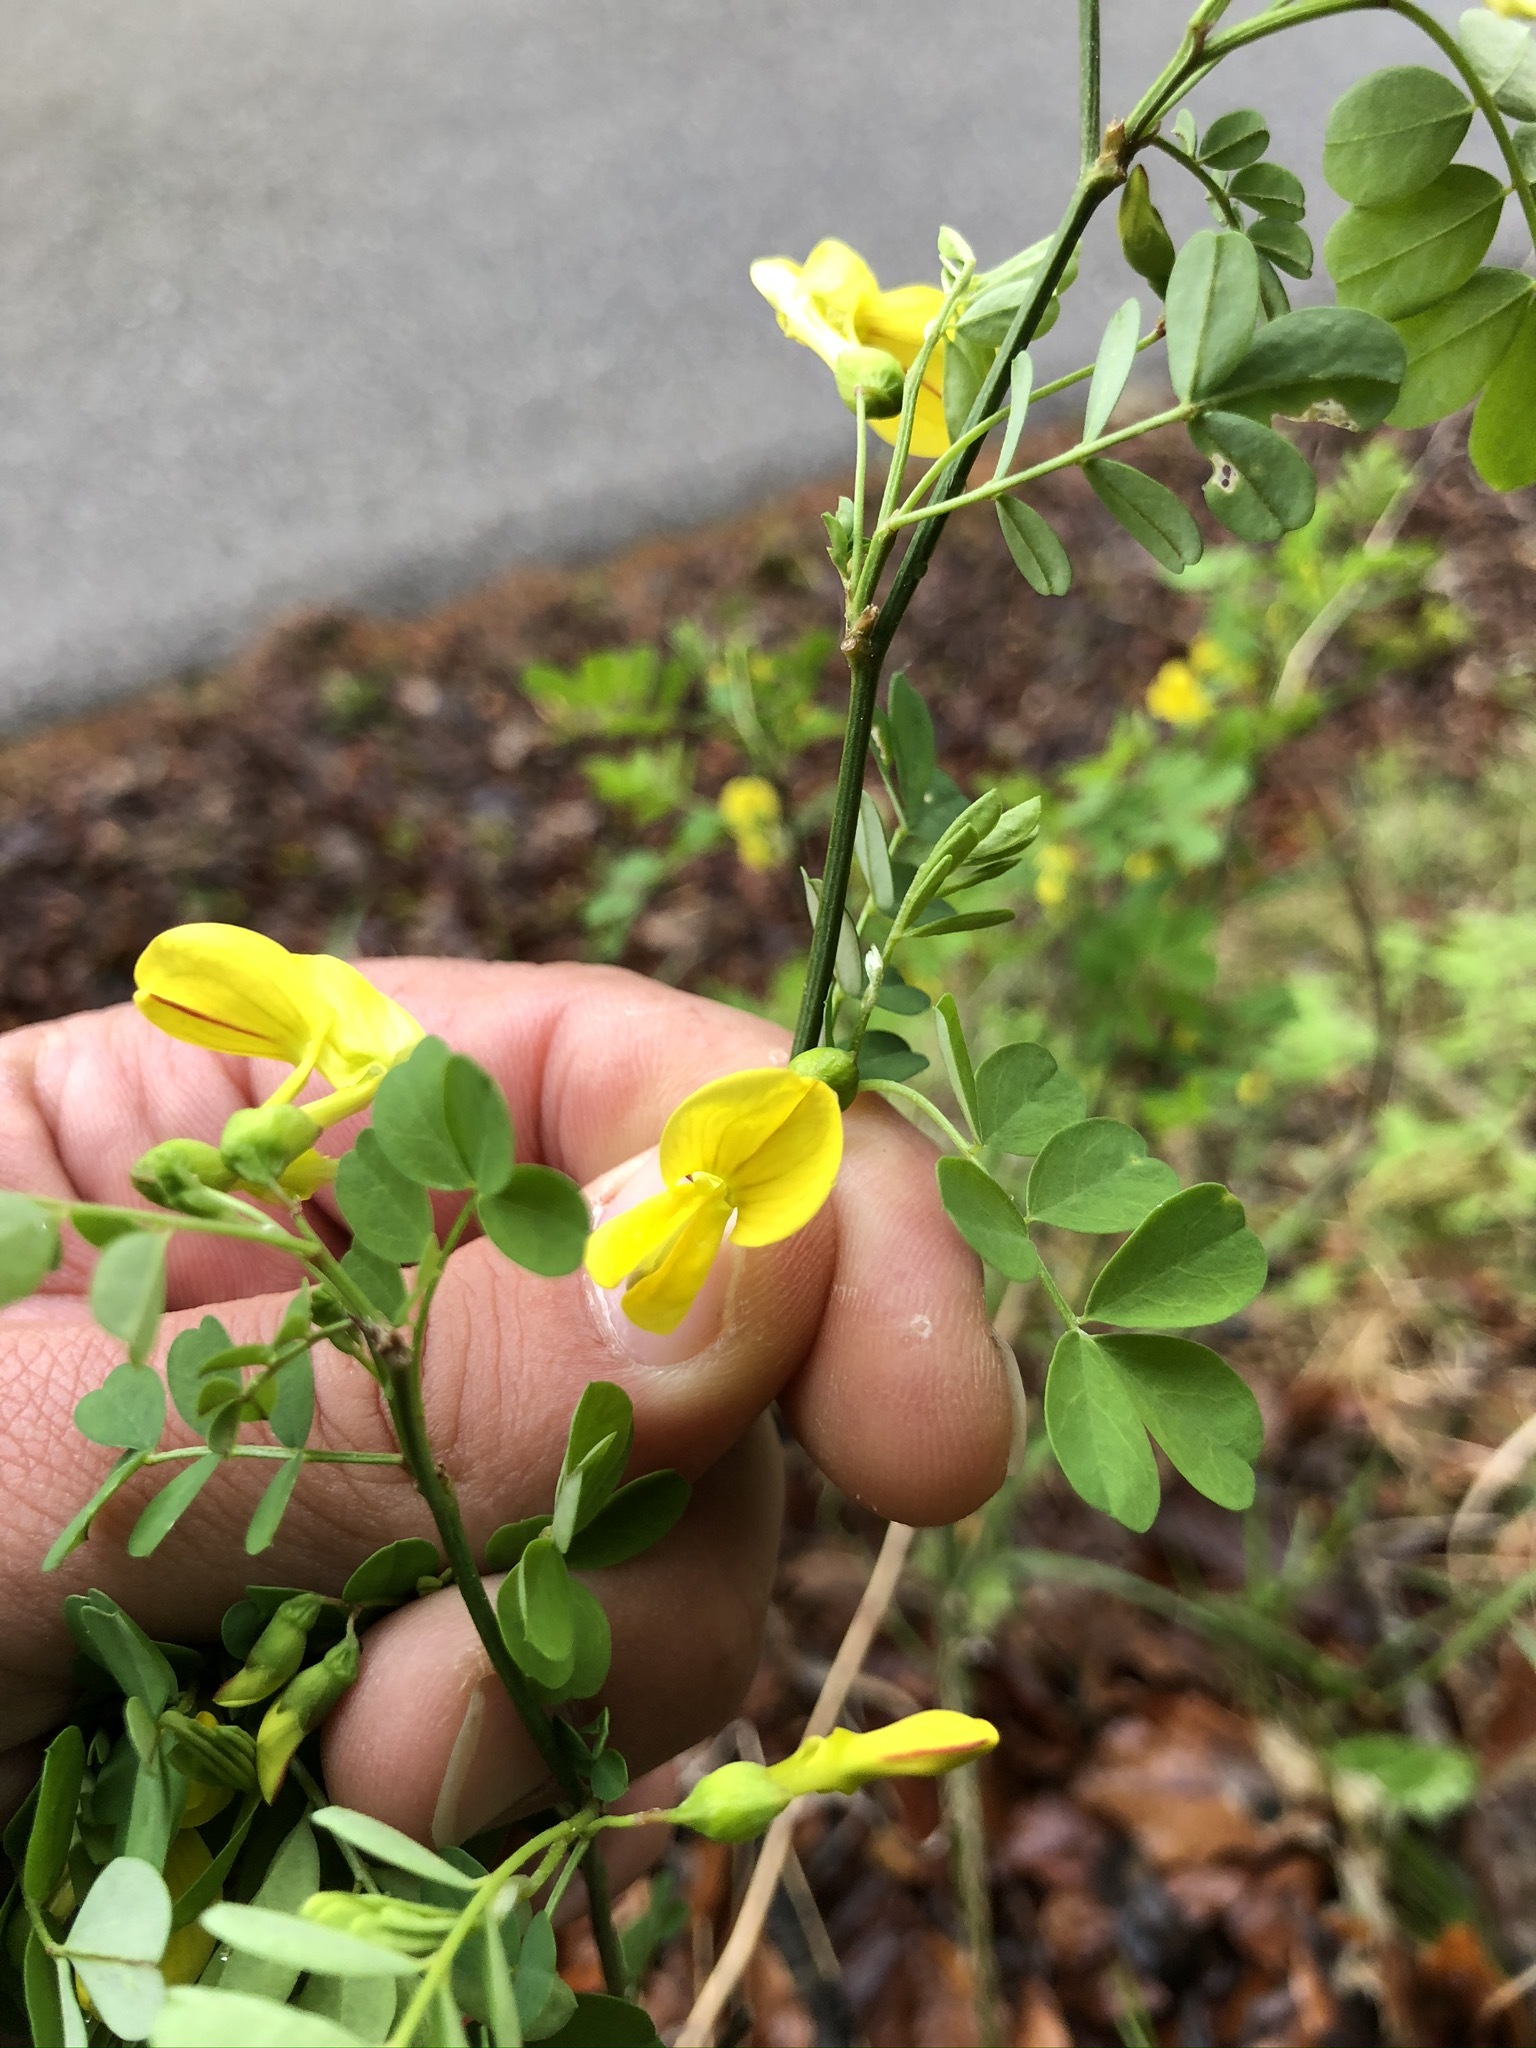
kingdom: Plantae
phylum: Tracheophyta
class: Magnoliopsida
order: Fabales
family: Fabaceae
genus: Hippocrepis
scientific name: Hippocrepis emerus
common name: Scorpion senna
